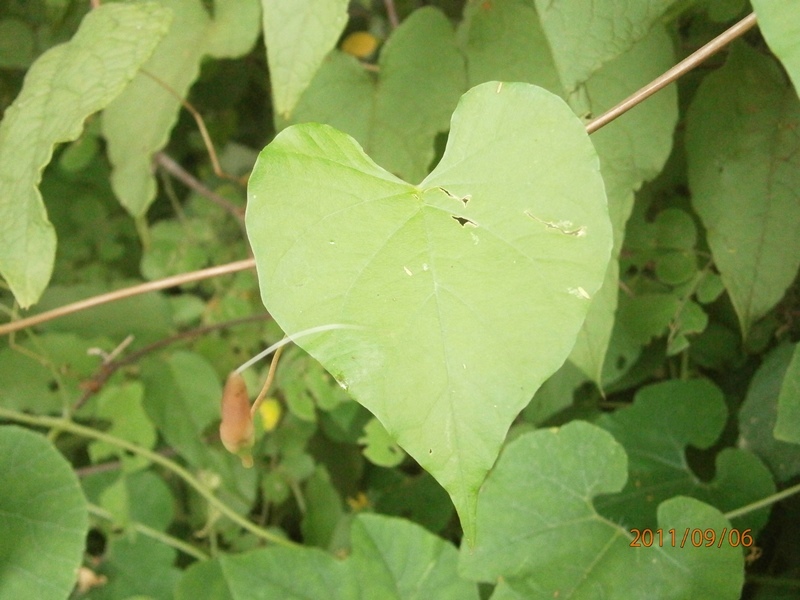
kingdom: Plantae
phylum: Tracheophyta
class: Magnoliopsida
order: Solanales
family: Convolvulaceae
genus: Operculina
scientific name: Operculina pteripes
